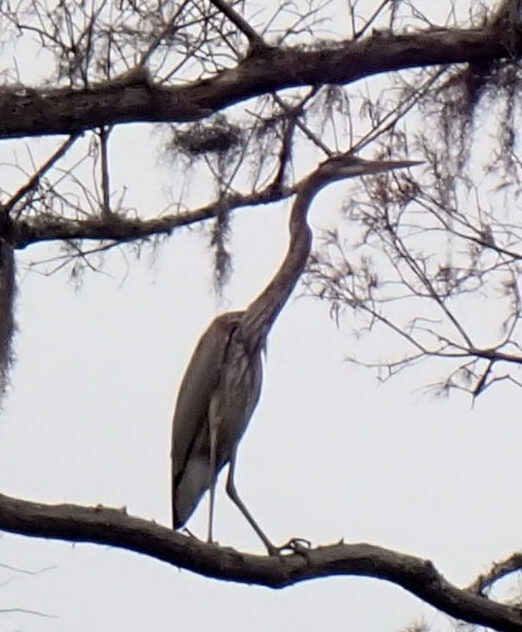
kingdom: Animalia
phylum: Chordata
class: Aves
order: Pelecaniformes
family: Ardeidae
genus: Ardea
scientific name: Ardea herodias
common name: Great blue heron
